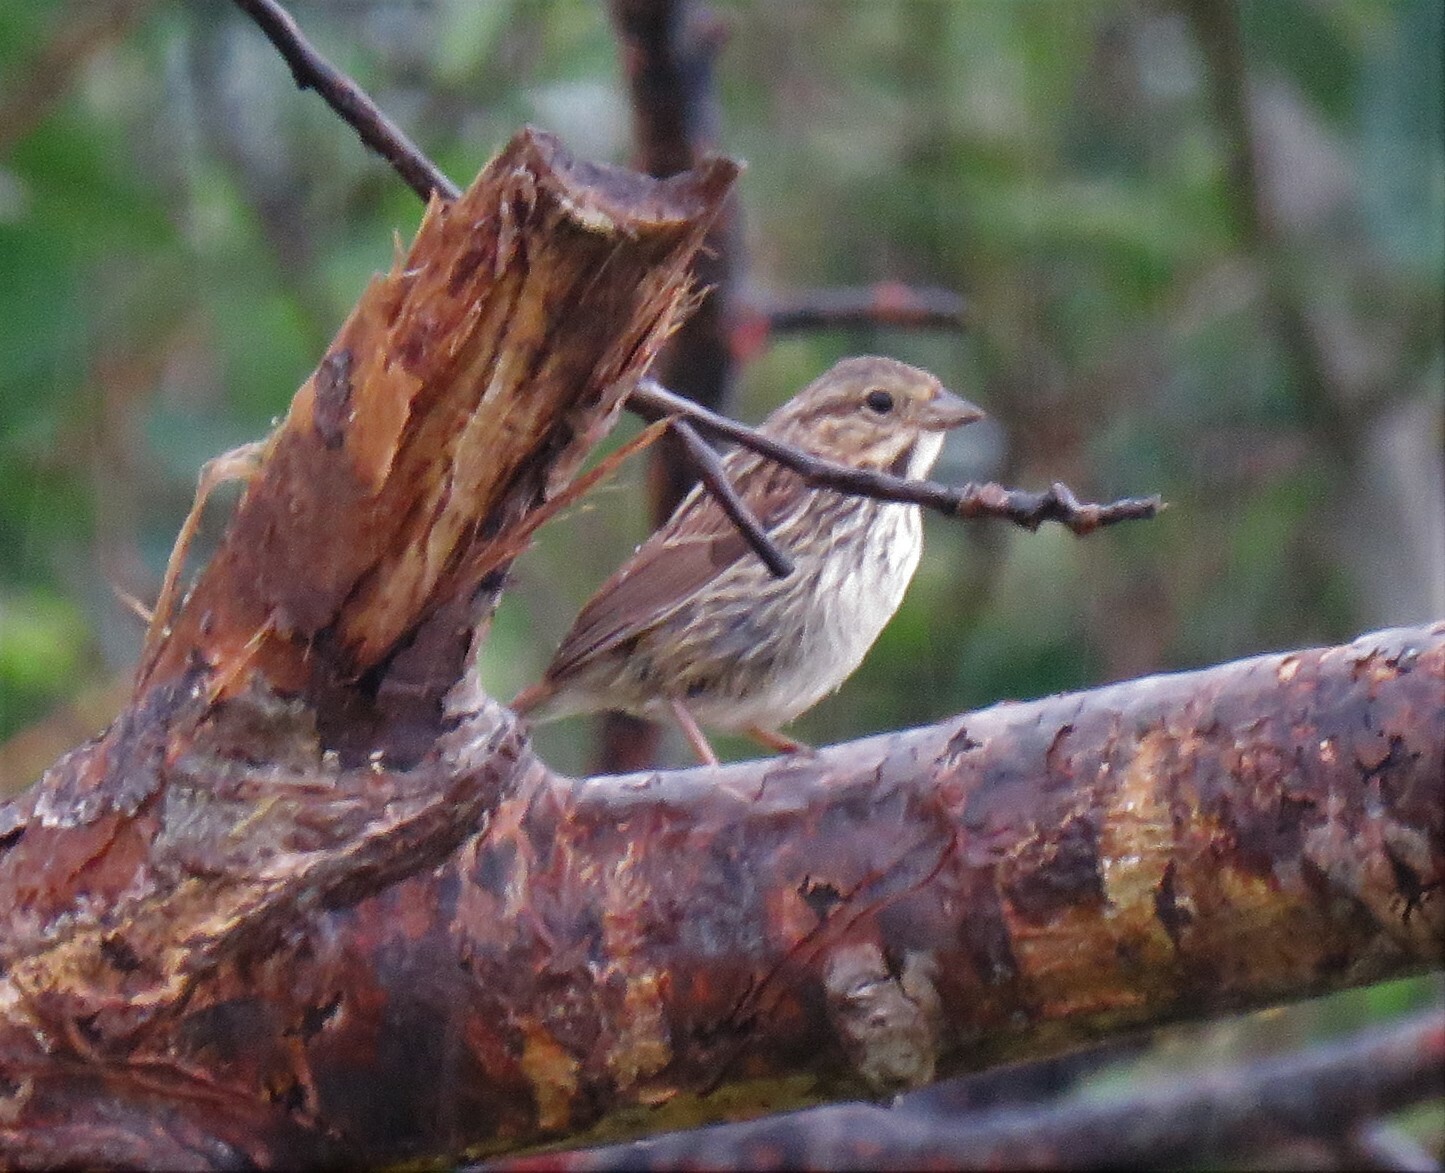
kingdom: Animalia
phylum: Chordata
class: Aves
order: Passeriformes
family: Passerellidae
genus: Melospiza
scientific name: Melospiza melodia
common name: Song sparrow
